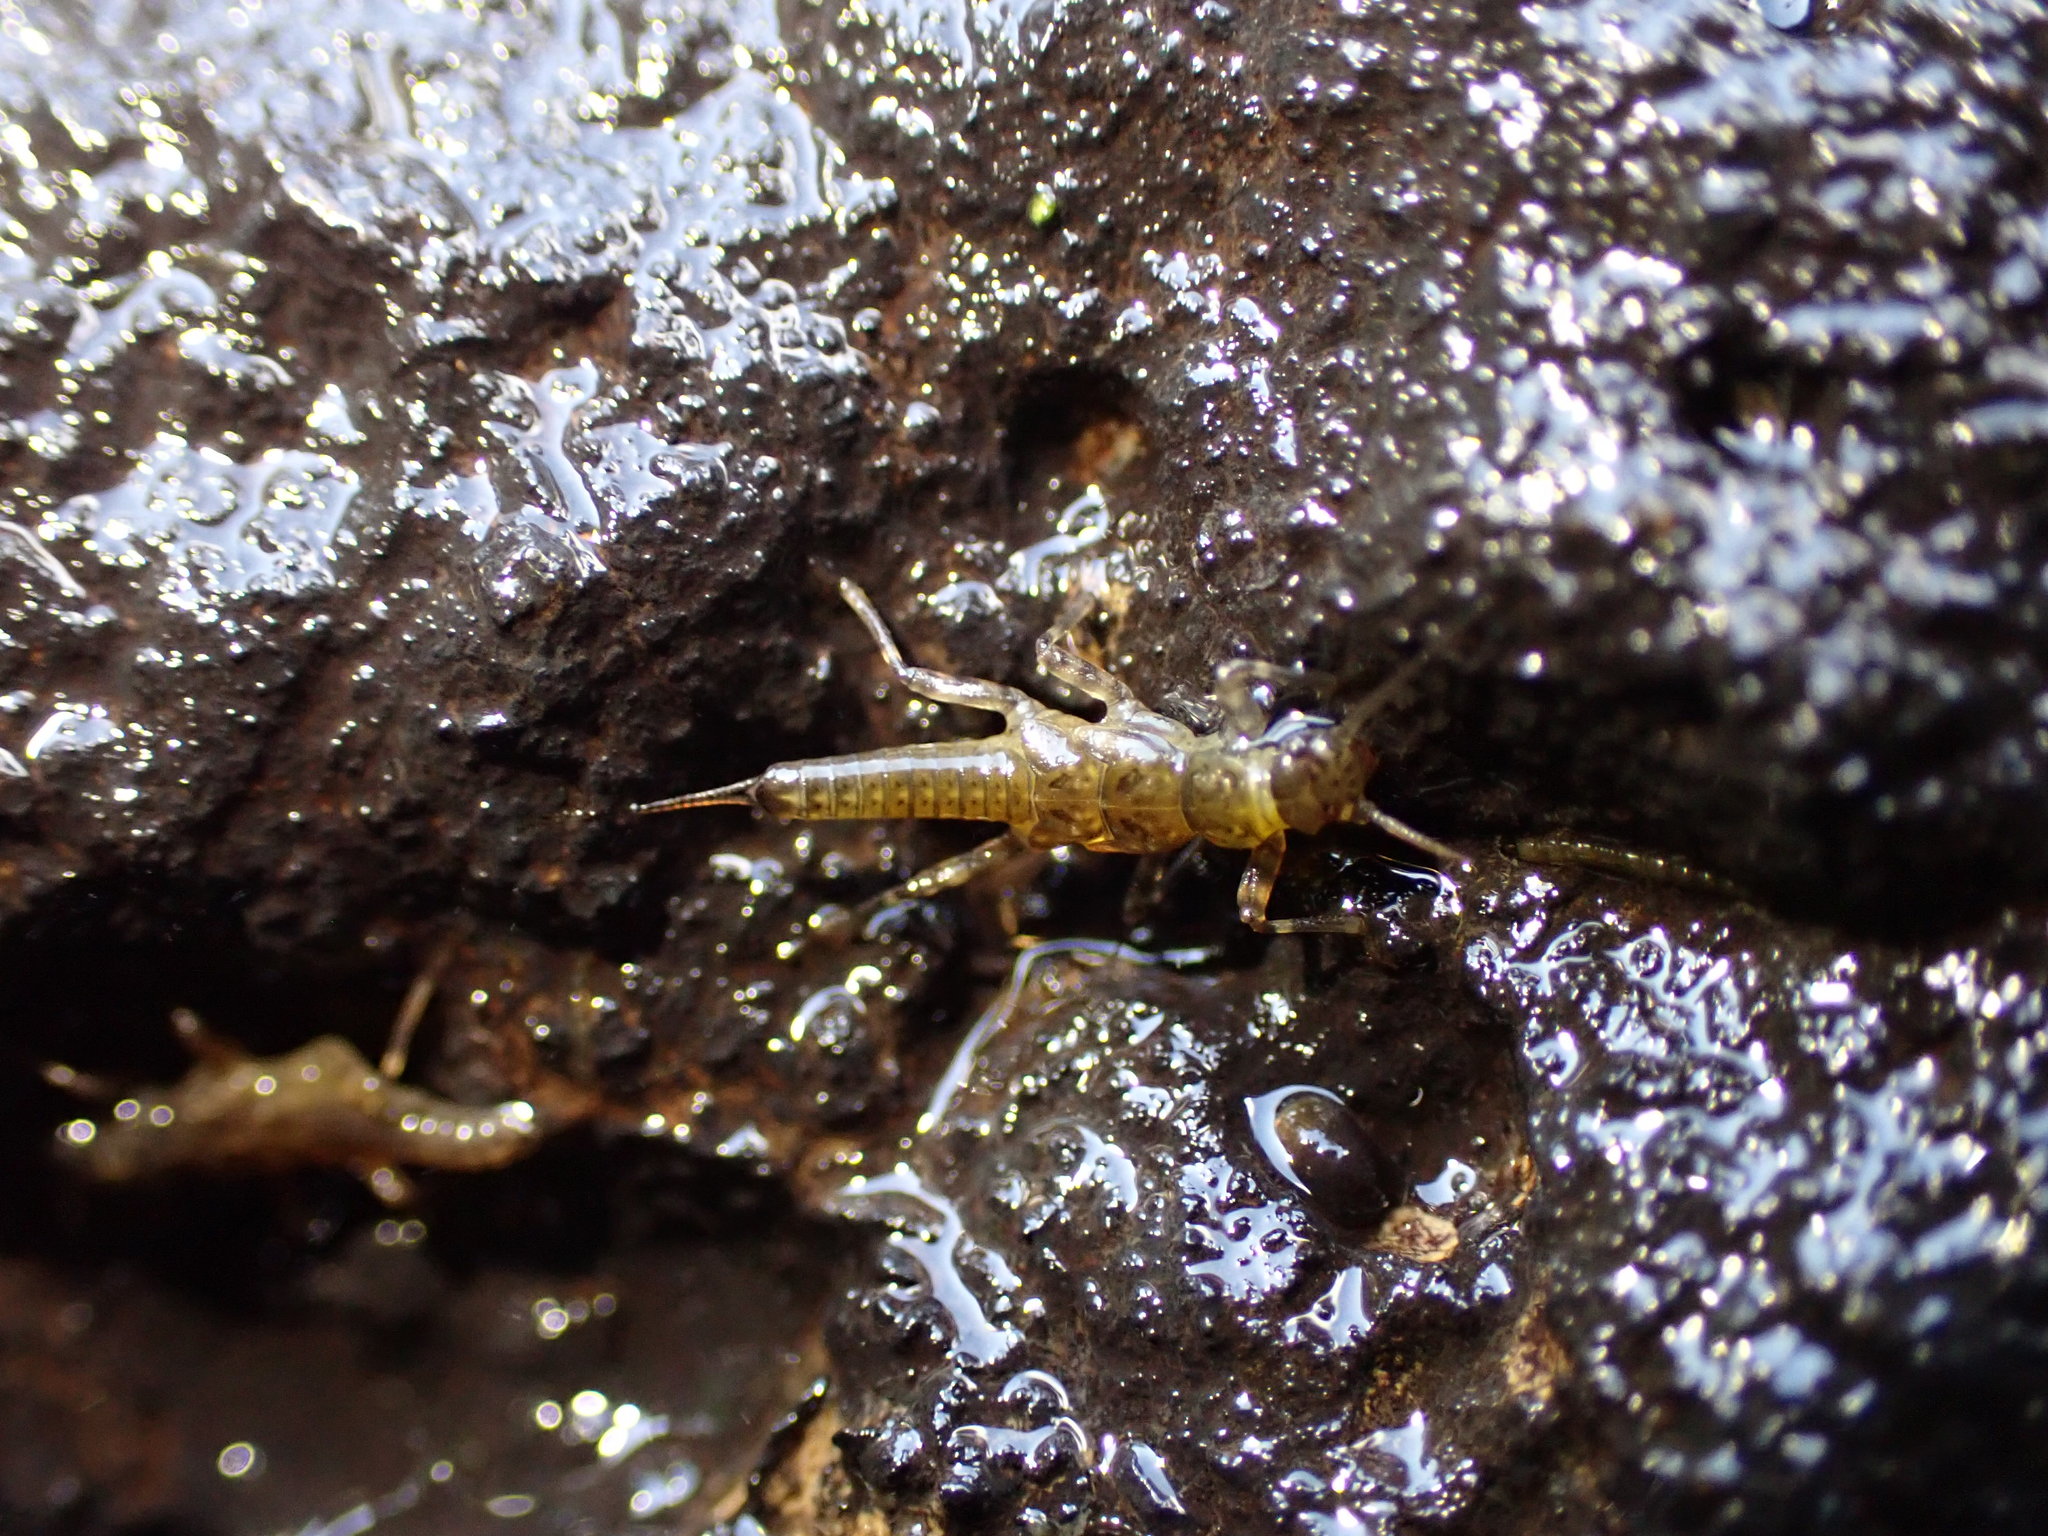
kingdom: Animalia
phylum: Arthropoda
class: Insecta
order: Plecoptera
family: Gripopterygidae
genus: Acroperla
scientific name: Acroperla
